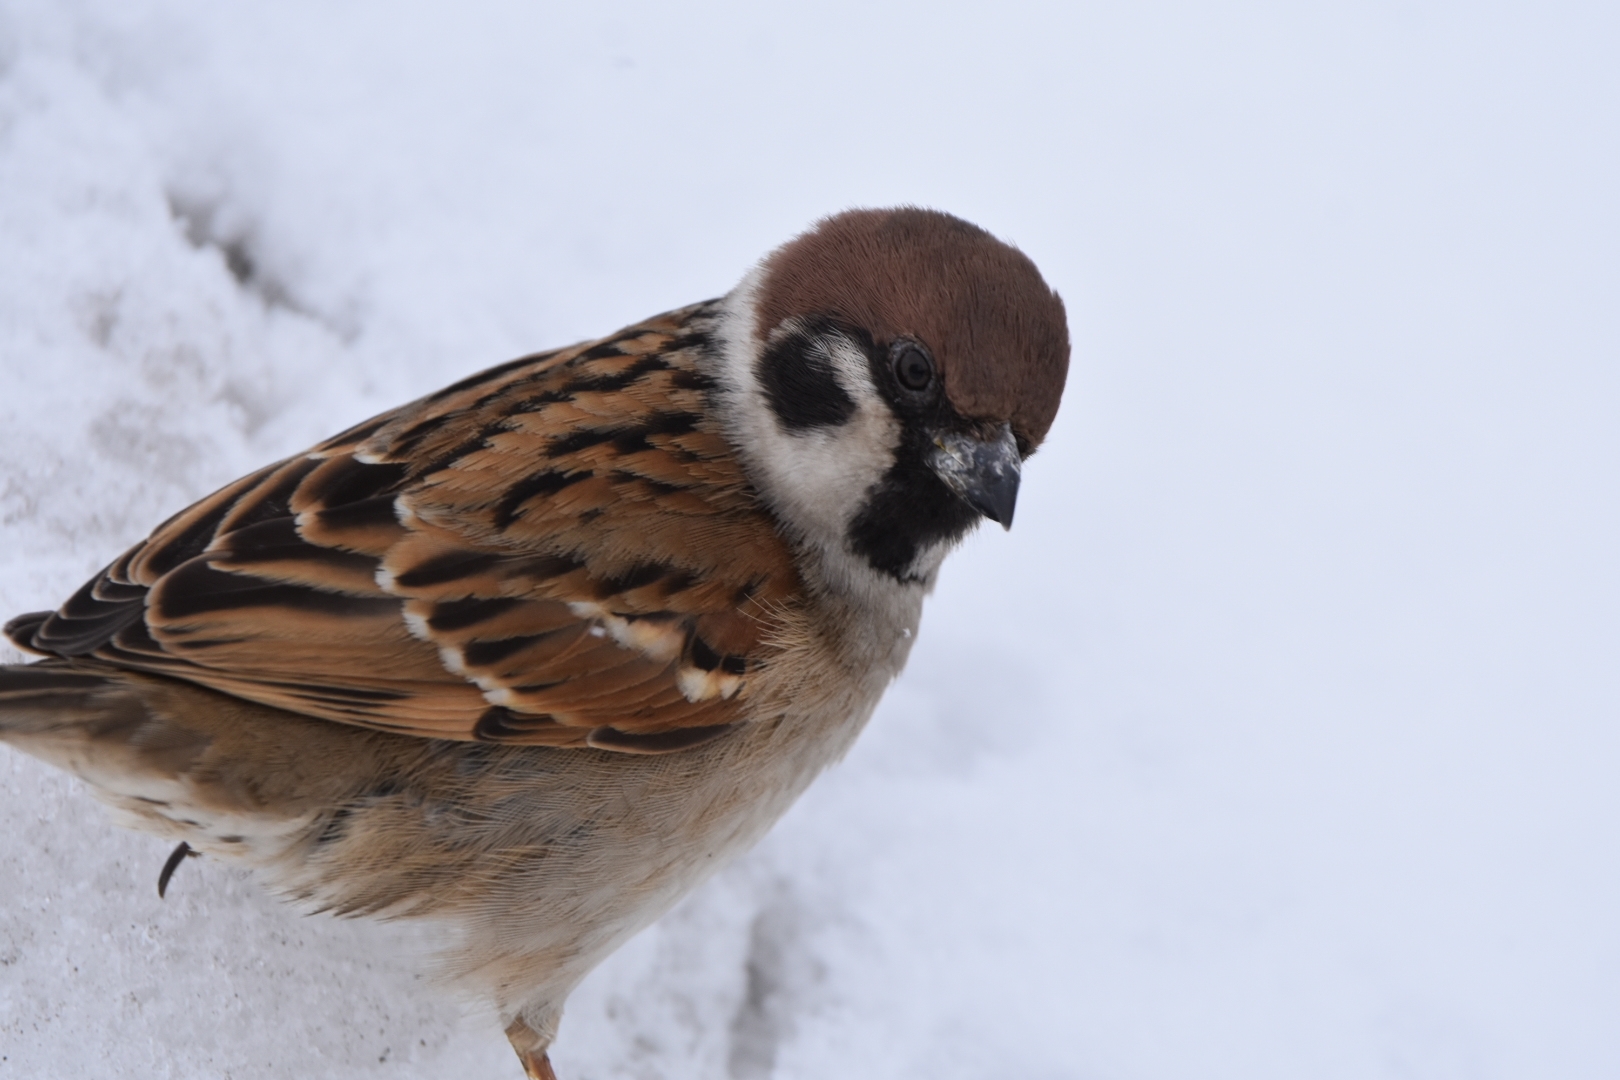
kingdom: Animalia
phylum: Chordata
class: Aves
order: Passeriformes
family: Passeridae
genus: Passer
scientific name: Passer montanus
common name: Eurasian tree sparrow
